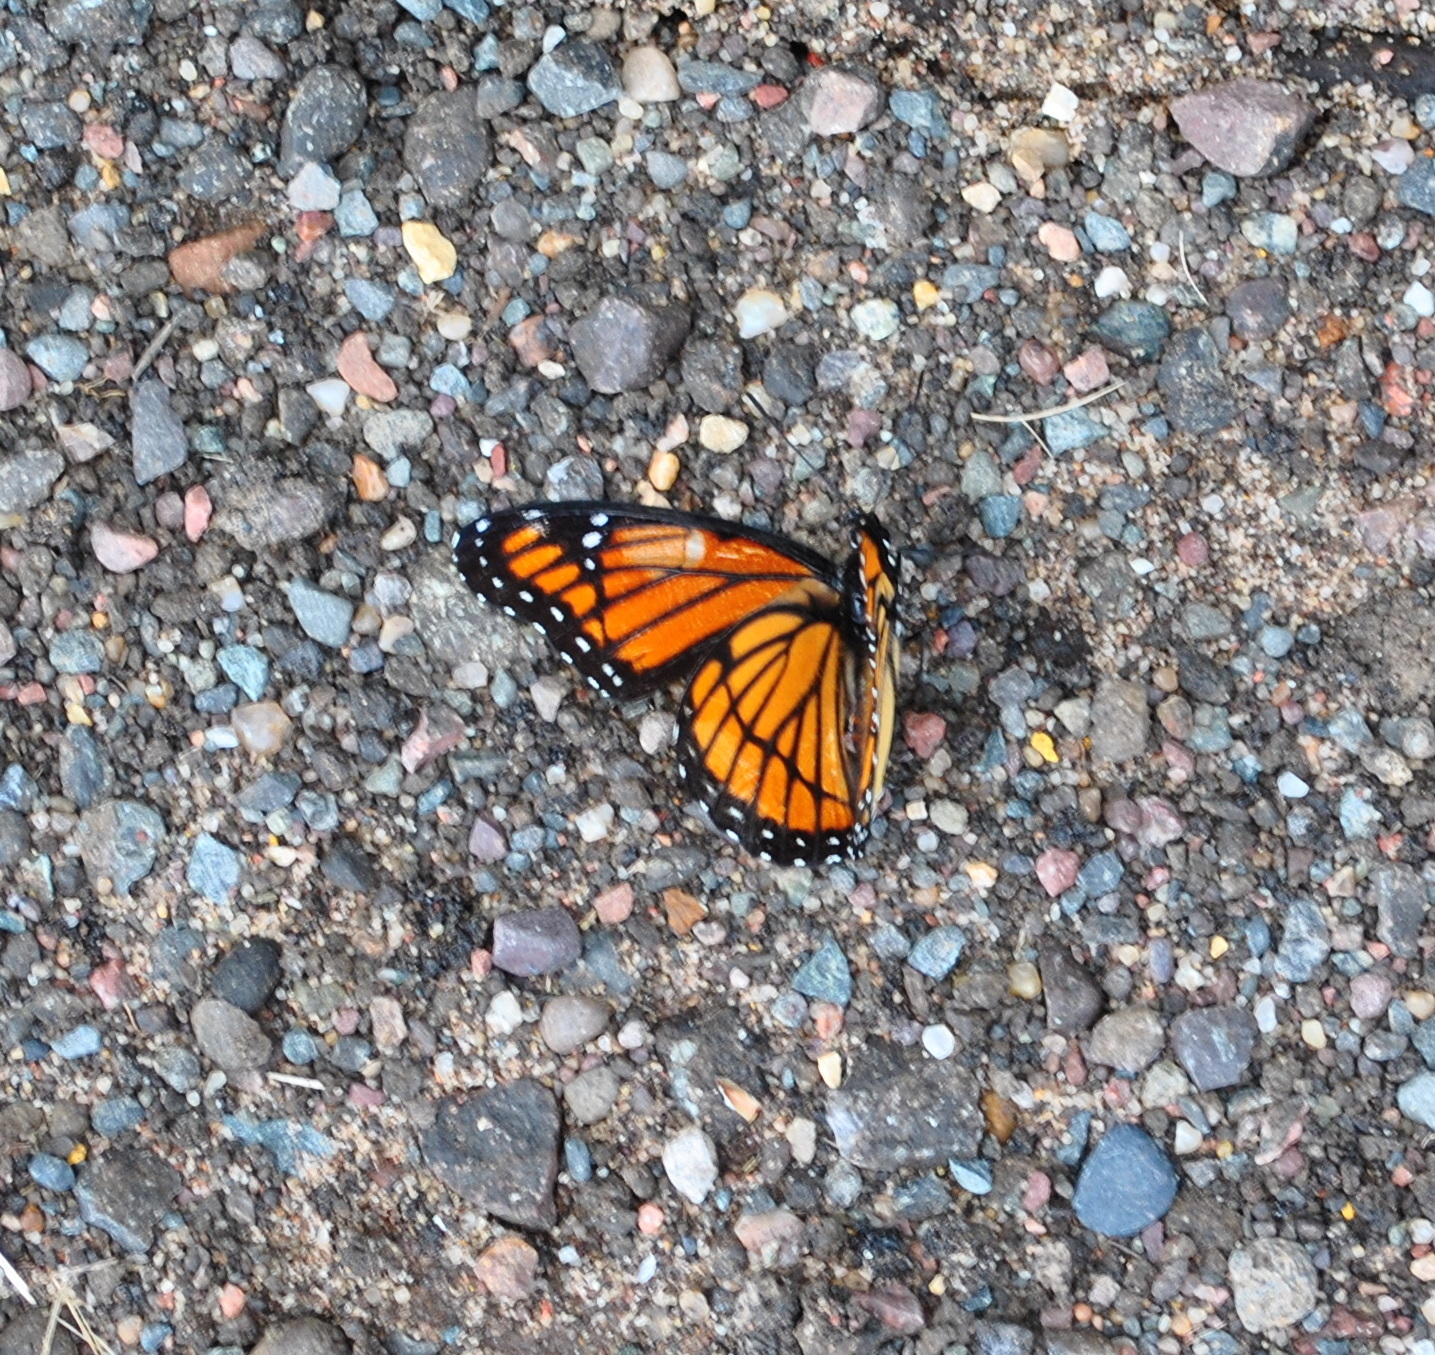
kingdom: Animalia
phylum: Arthropoda
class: Insecta
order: Lepidoptera
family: Nymphalidae
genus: Limenitis
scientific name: Limenitis archippus
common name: Viceroy
